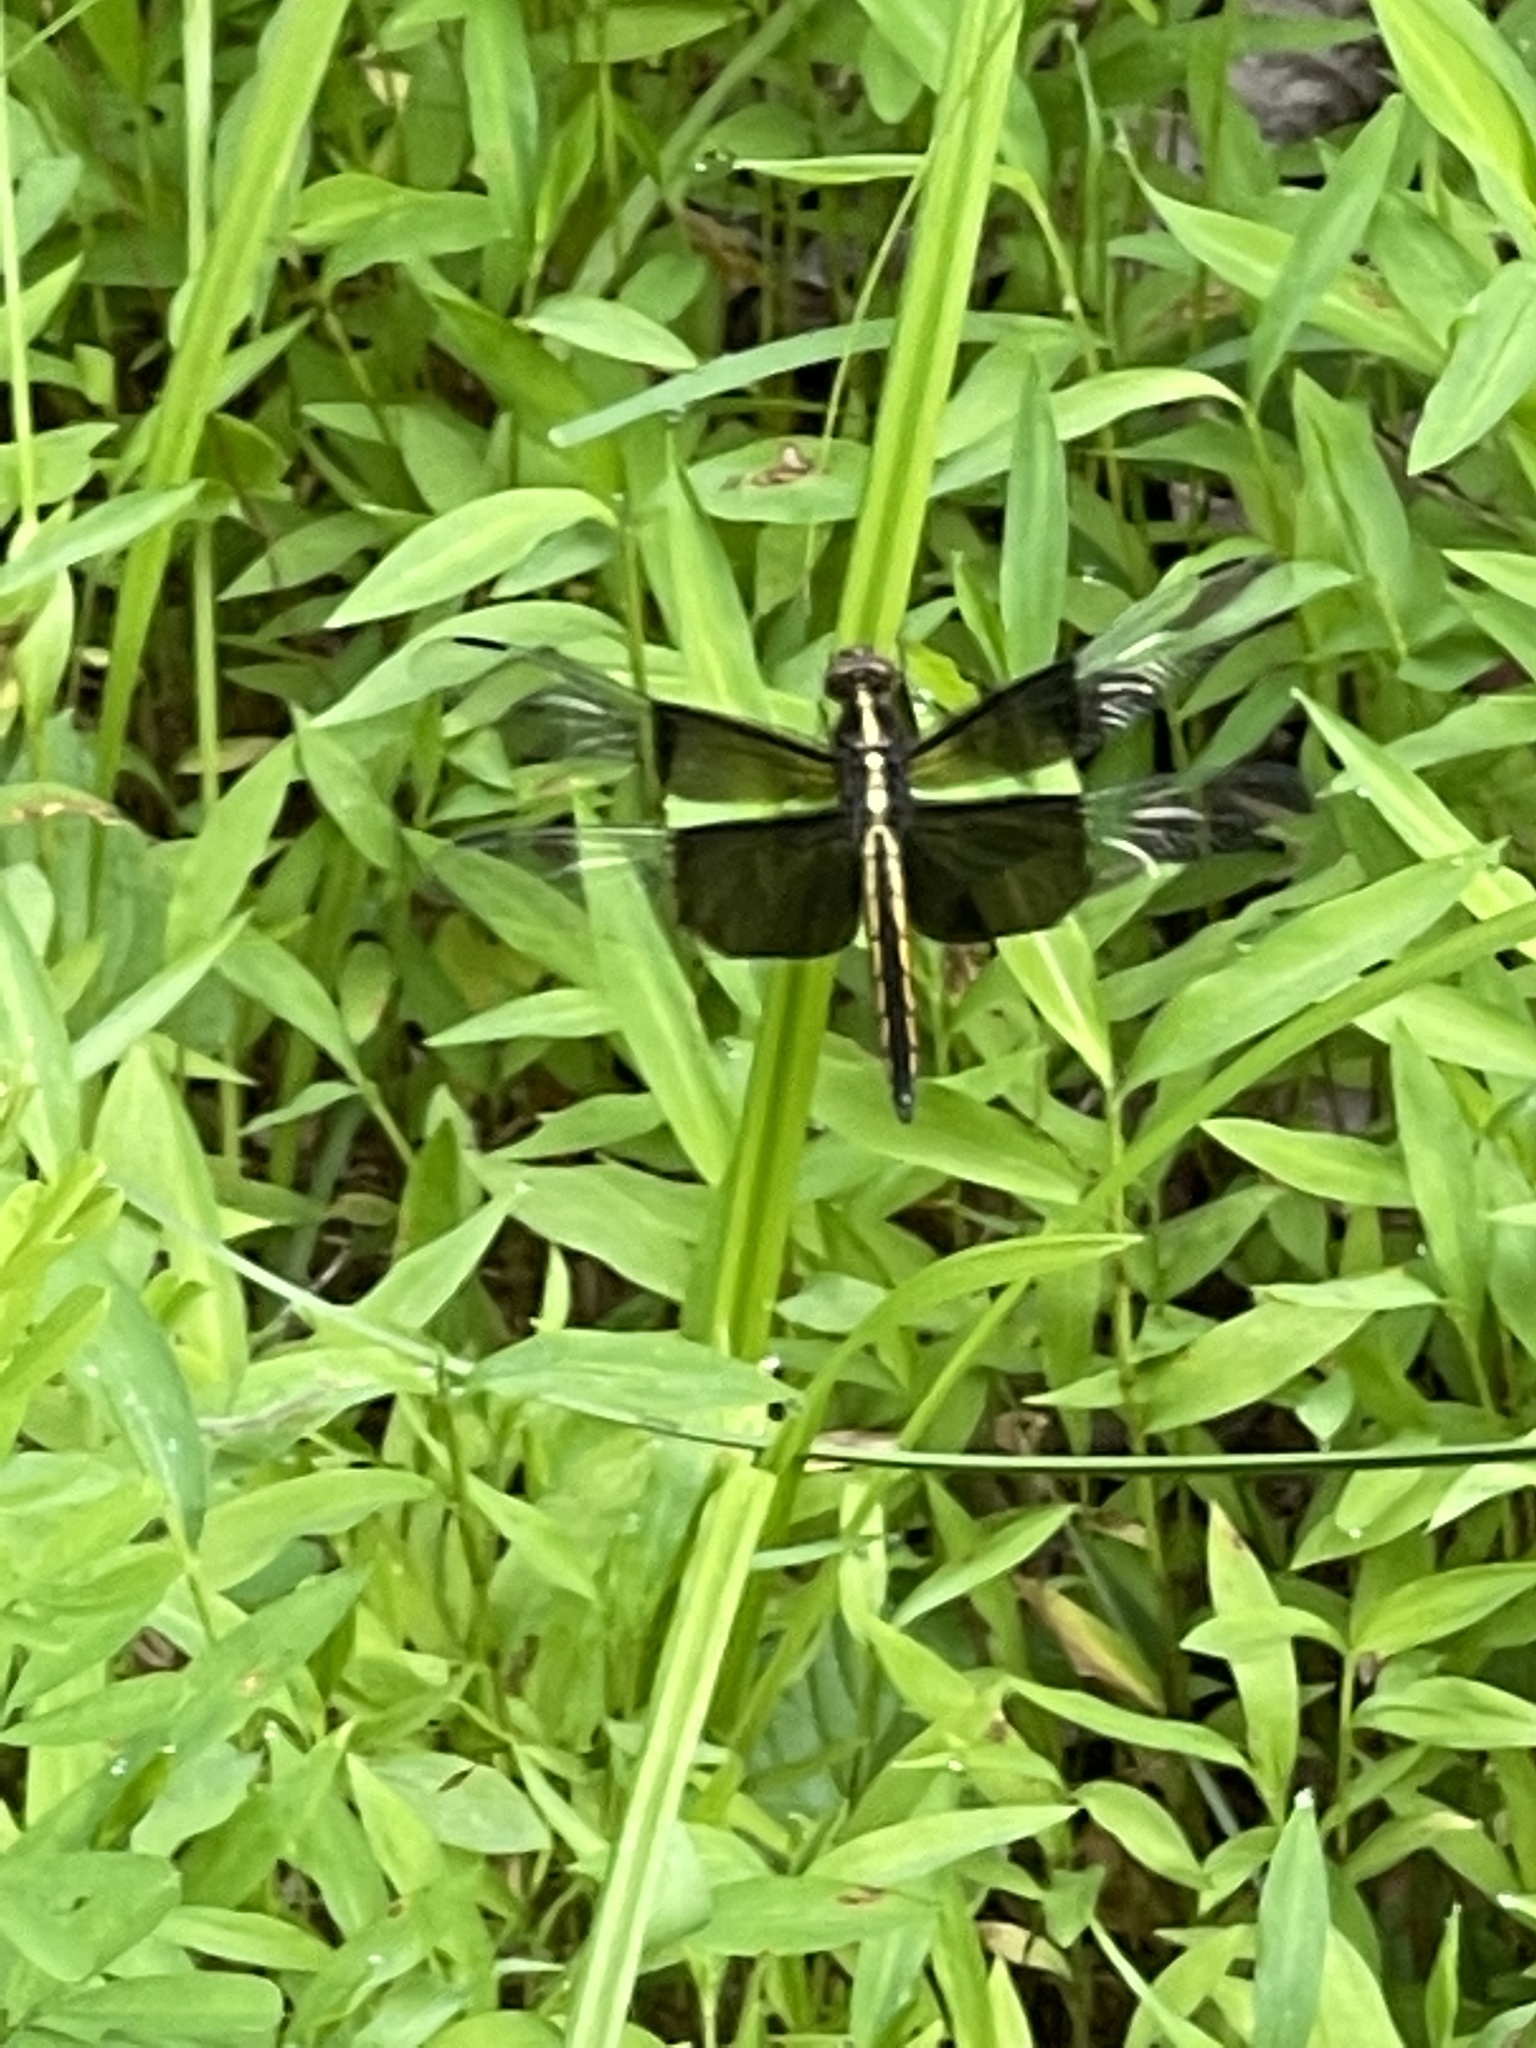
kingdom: Animalia
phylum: Arthropoda
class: Insecta
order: Odonata
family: Libellulidae
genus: Libellula
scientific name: Libellula luctuosa
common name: Widow skimmer
